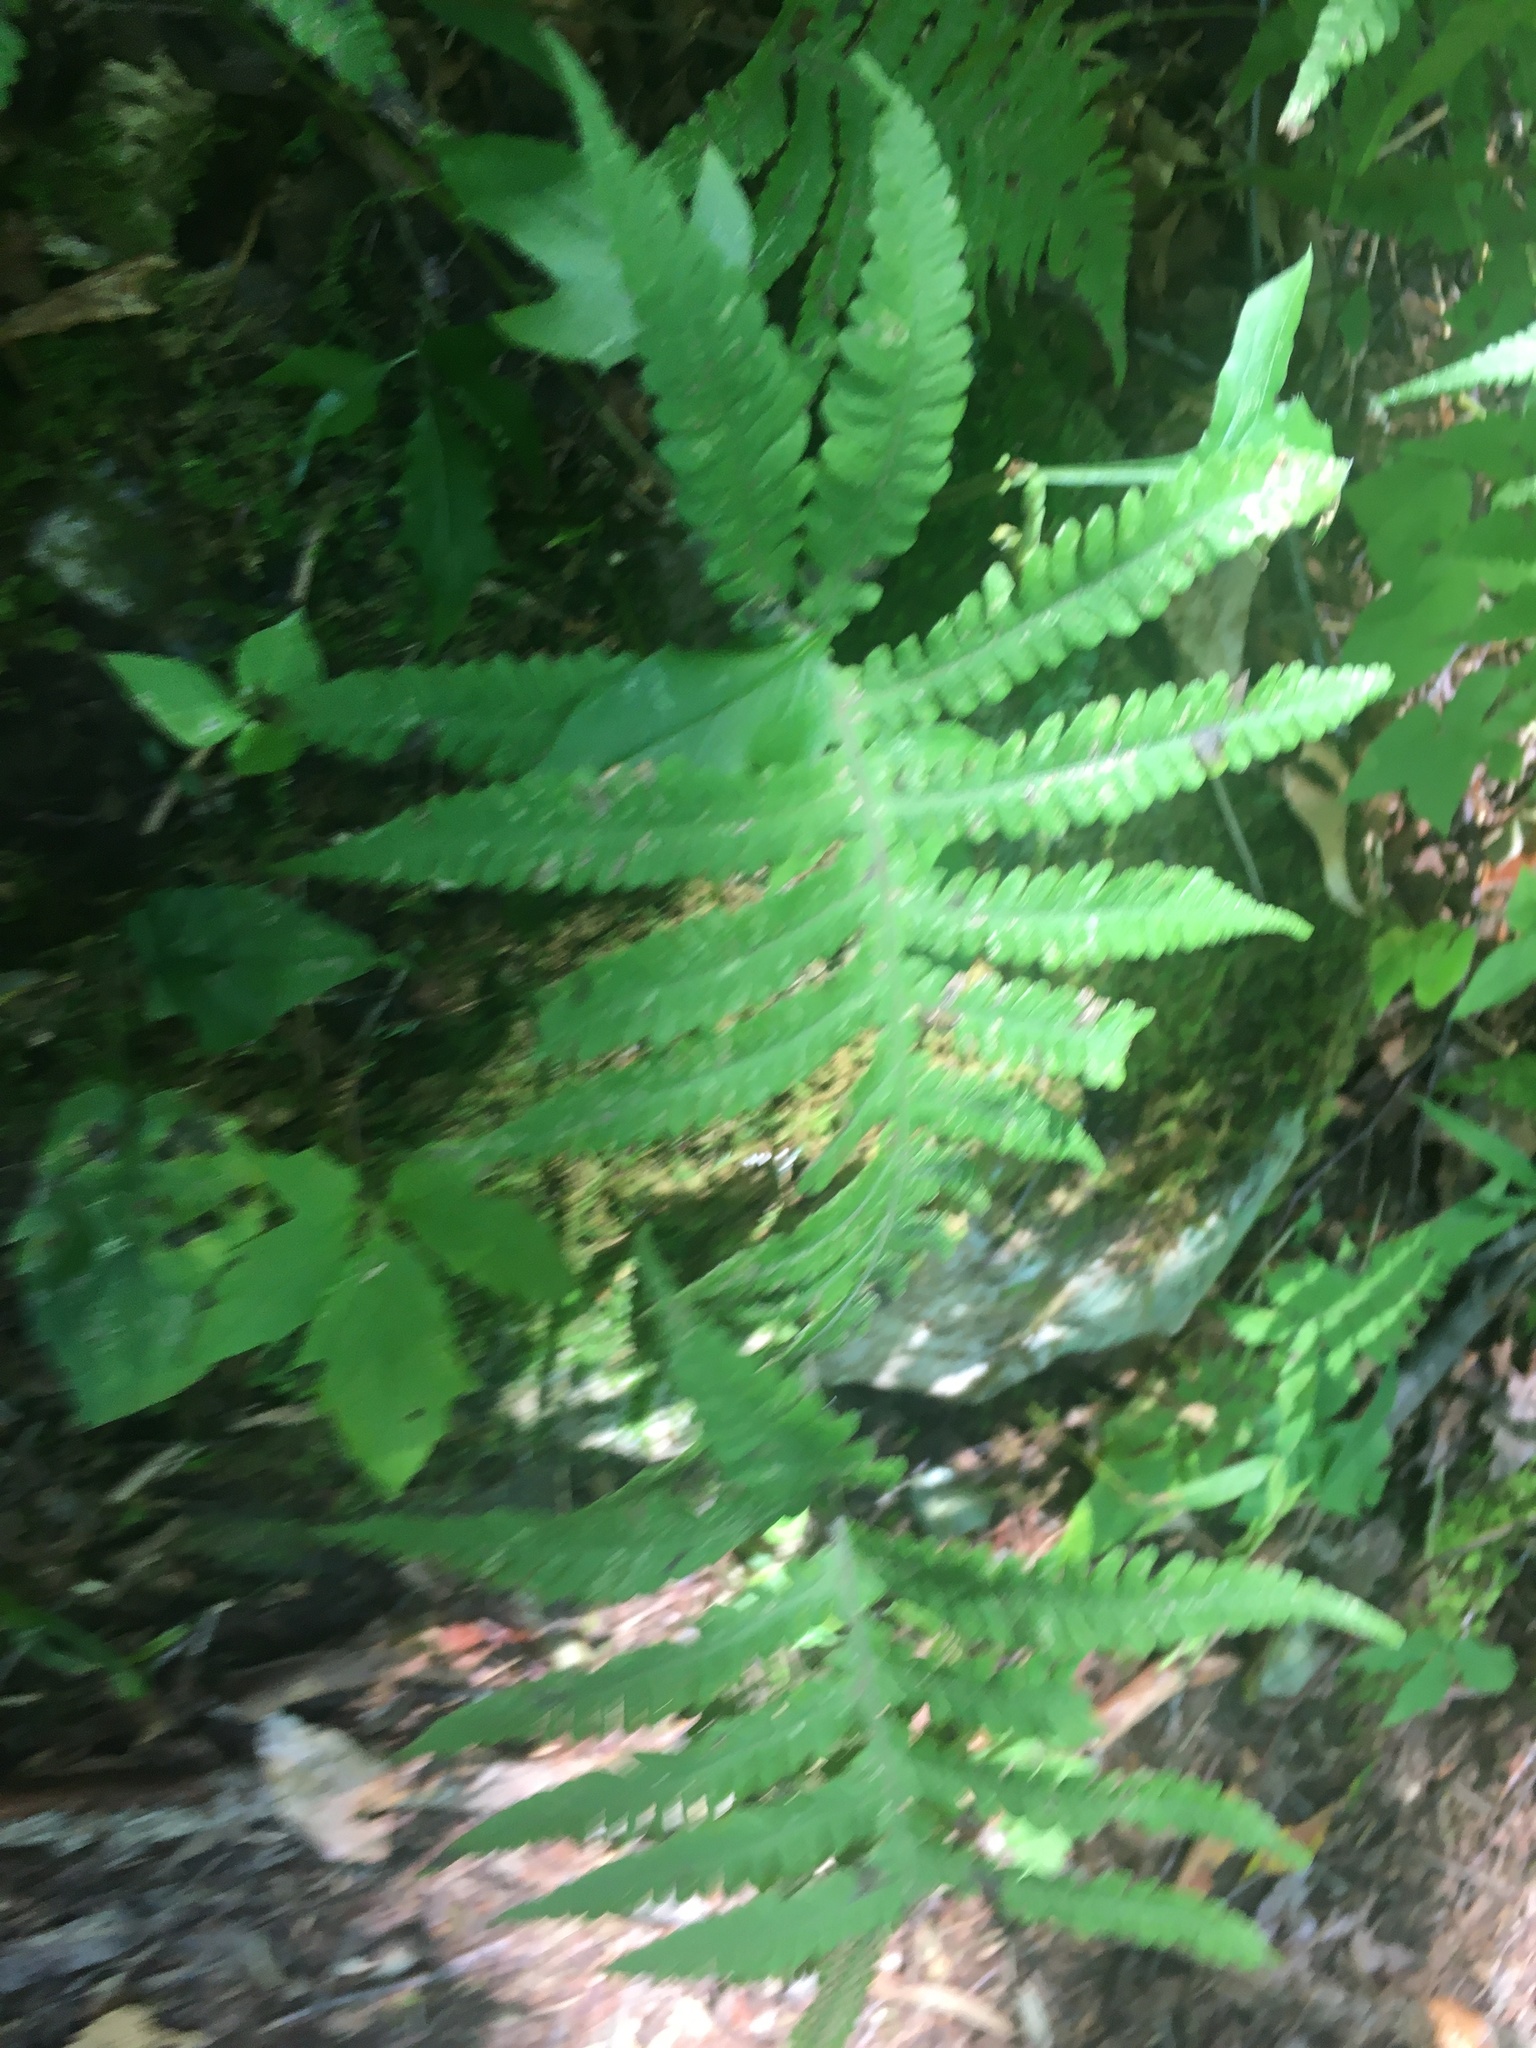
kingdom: Plantae
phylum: Tracheophyta
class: Polypodiopsida
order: Polypodiales
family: Thelypteridaceae
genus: Phegopteris
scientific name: Phegopteris connectilis
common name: Beech fern
